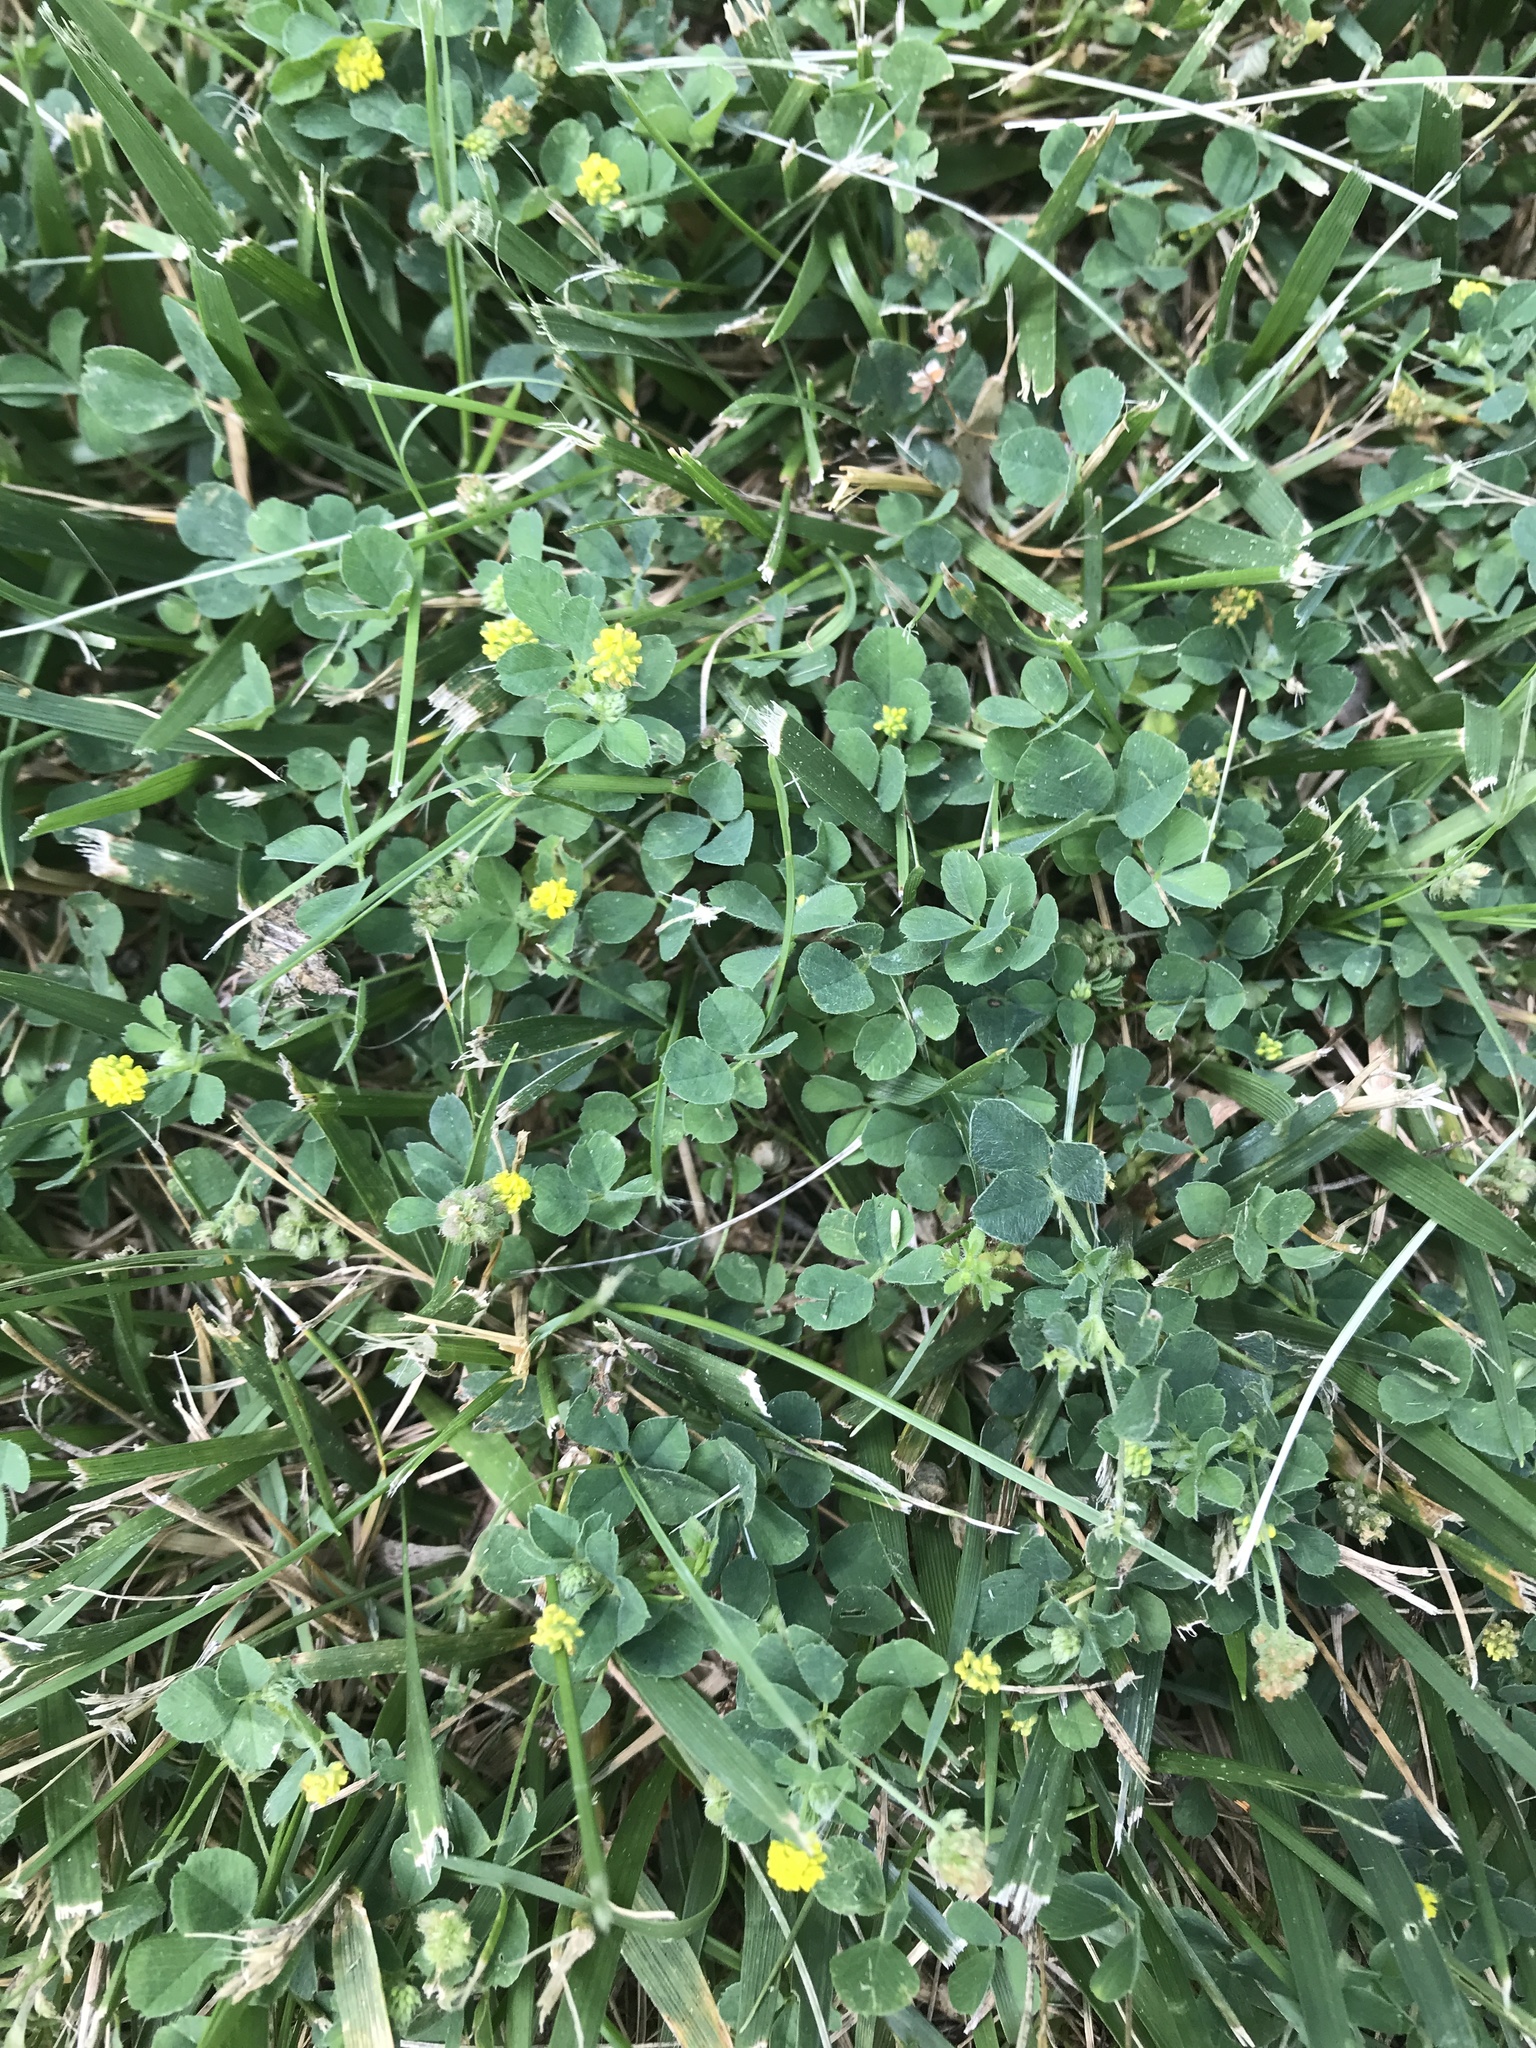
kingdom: Plantae
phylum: Tracheophyta
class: Magnoliopsida
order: Fabales
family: Fabaceae
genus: Medicago
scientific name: Medicago lupulina
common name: Black medick
